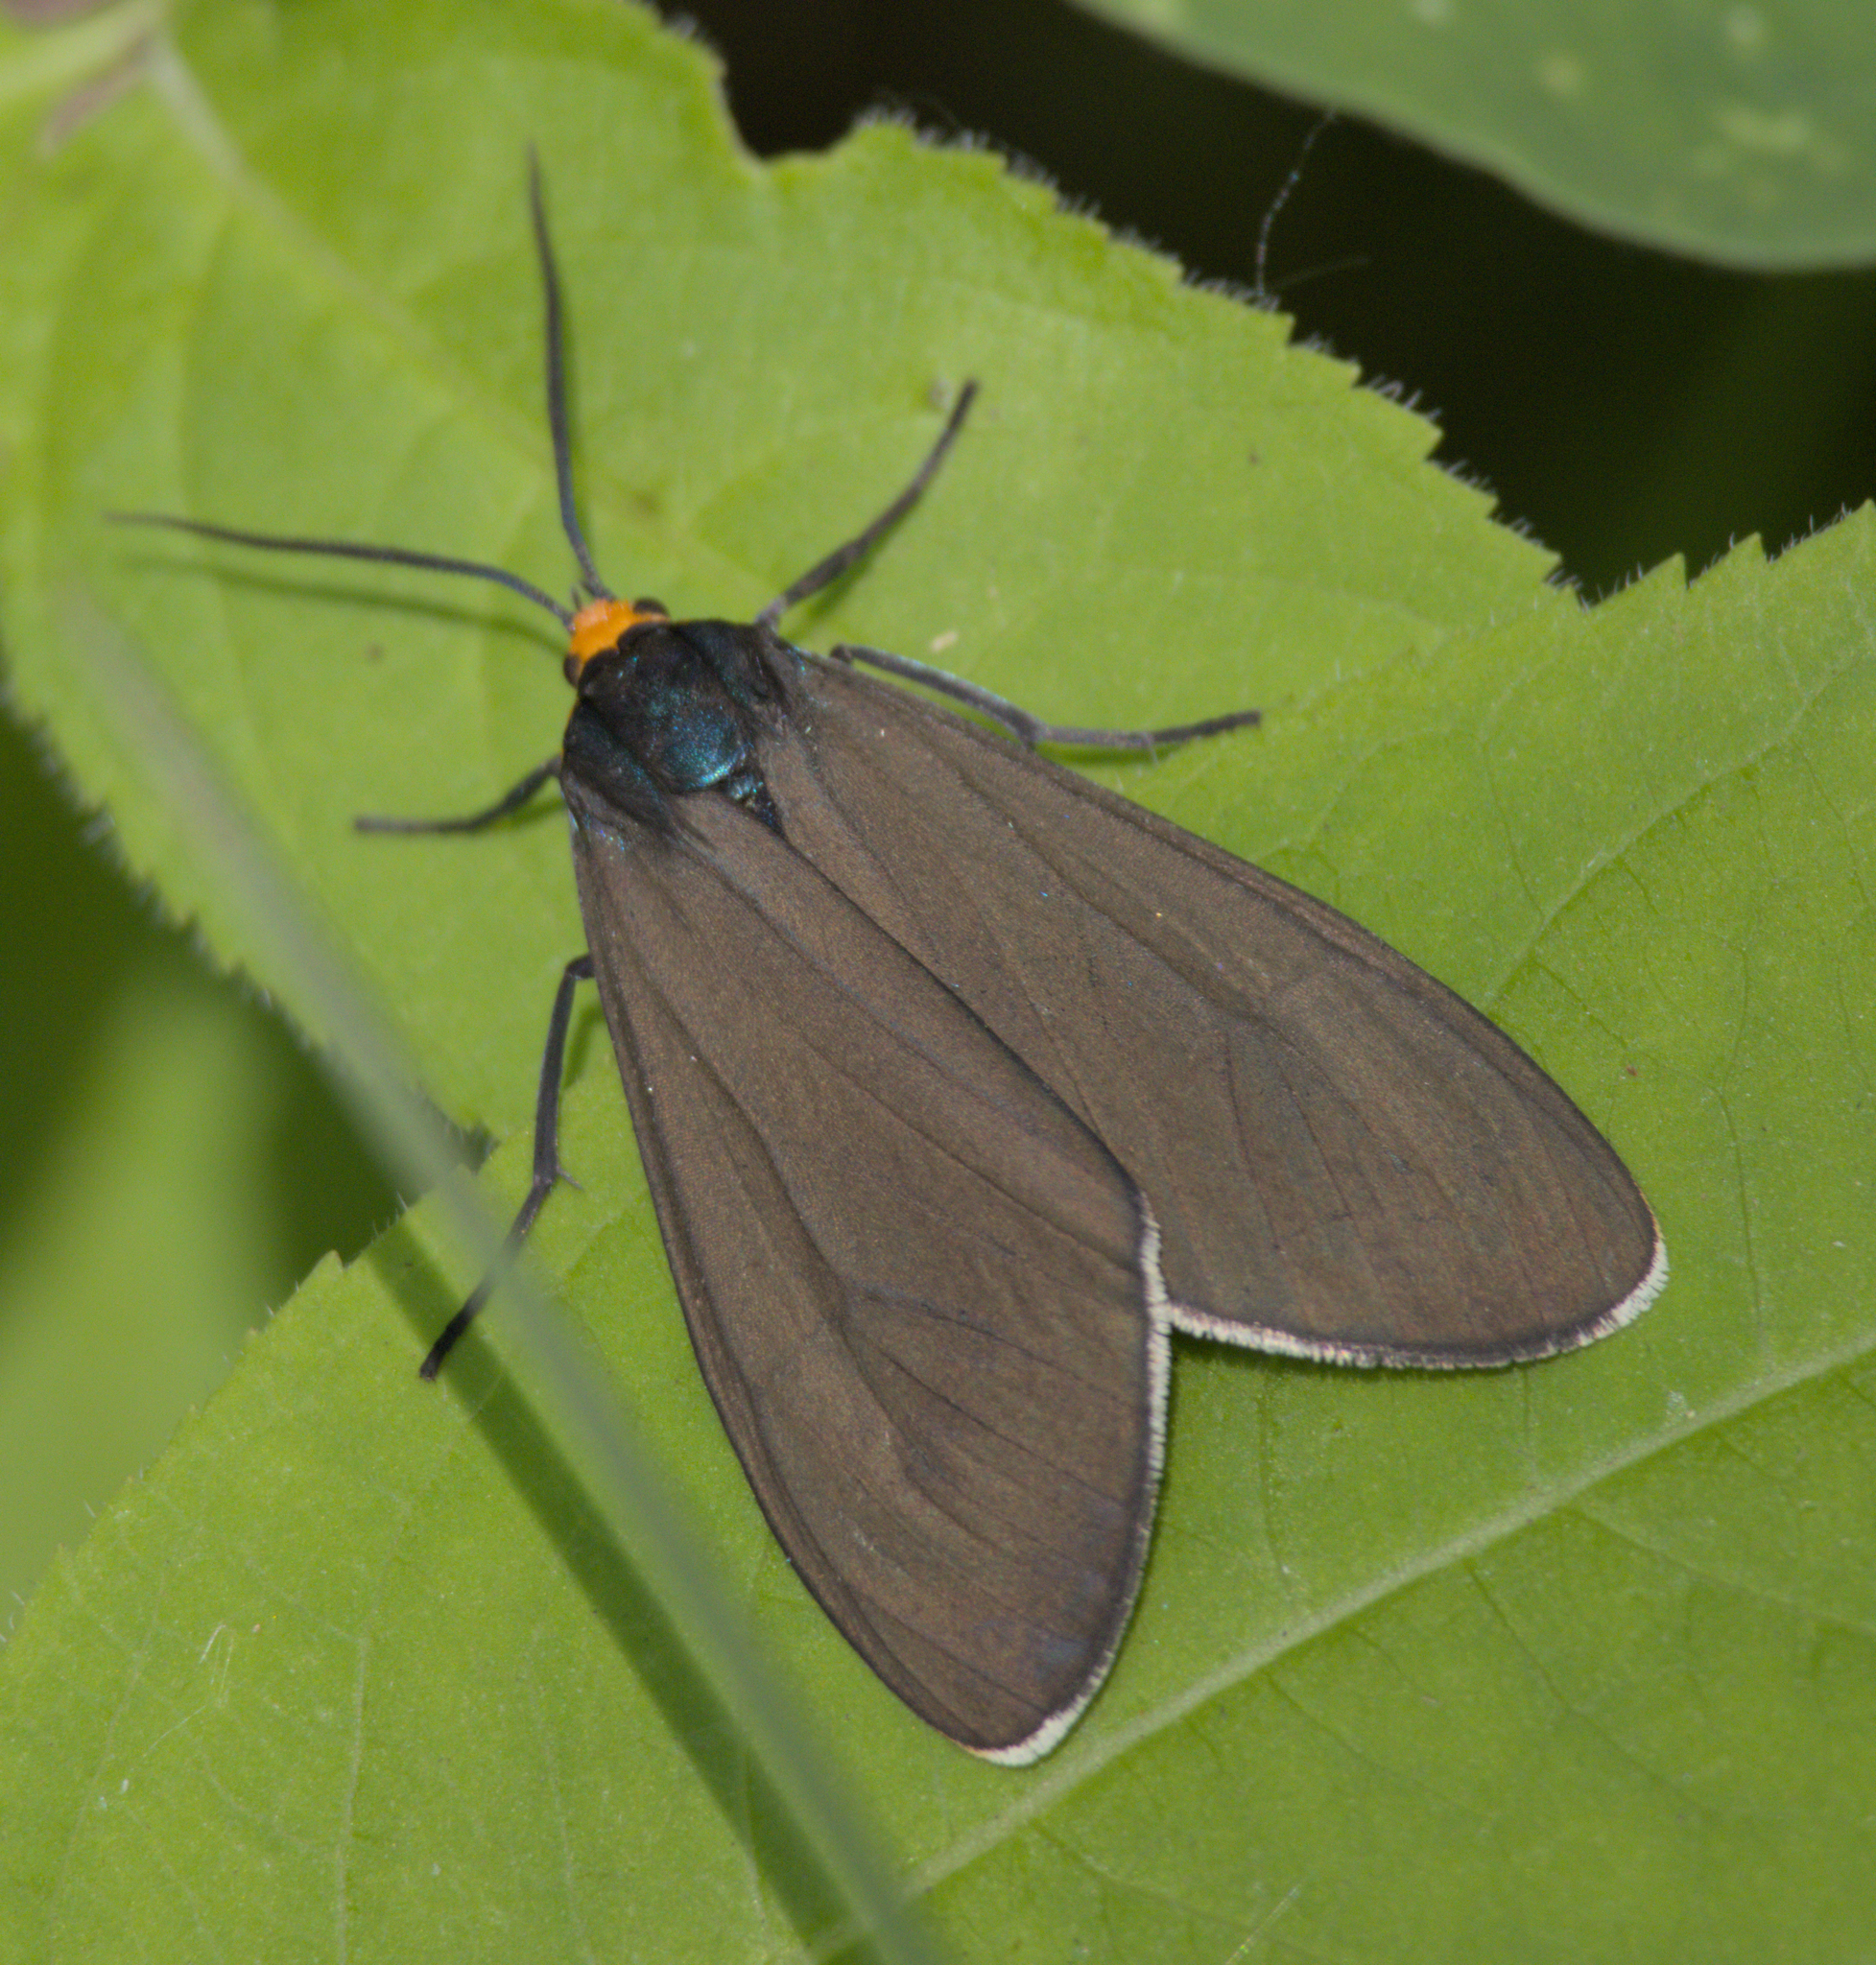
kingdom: Animalia
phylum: Arthropoda
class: Insecta
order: Lepidoptera
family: Erebidae
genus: Ctenucha
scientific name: Ctenucha virginica
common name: Virginia ctenucha moth
